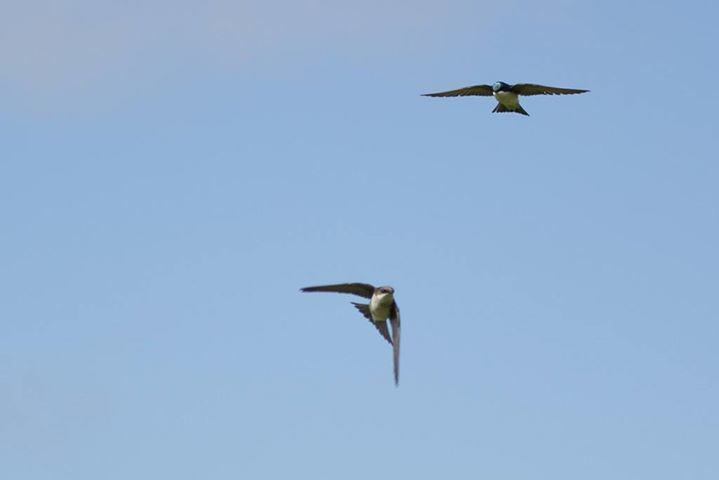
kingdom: Animalia
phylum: Chordata
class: Aves
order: Passeriformes
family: Hirundinidae
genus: Tachycineta
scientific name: Tachycineta bicolor
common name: Tree swallow
